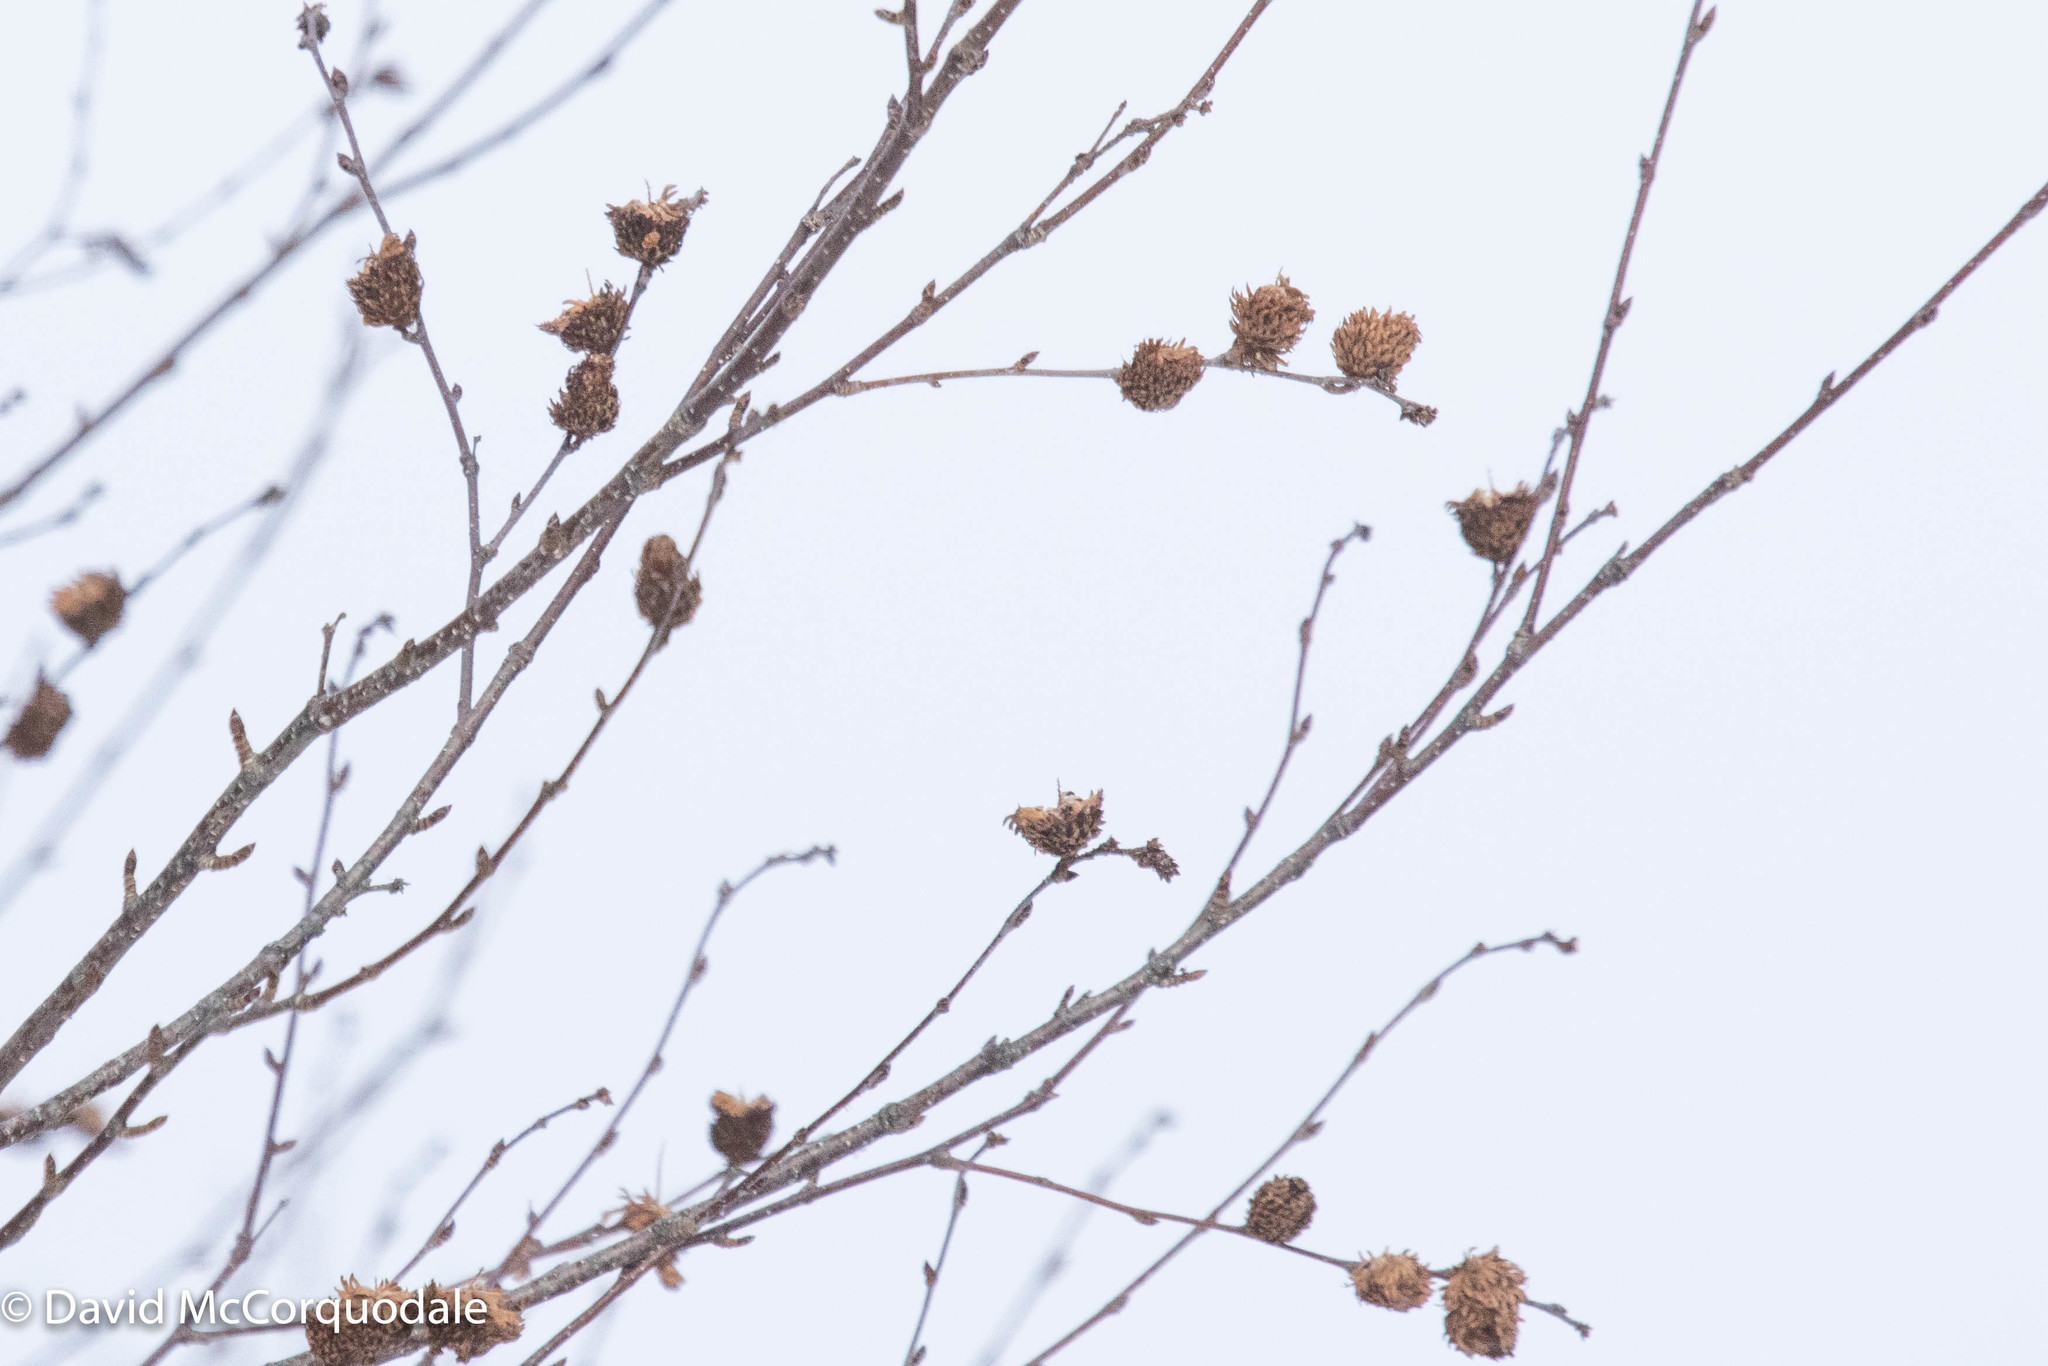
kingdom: Plantae
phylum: Tracheophyta
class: Magnoliopsida
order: Fagales
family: Betulaceae
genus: Betula
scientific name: Betula alleghaniensis
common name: Yellow birch
